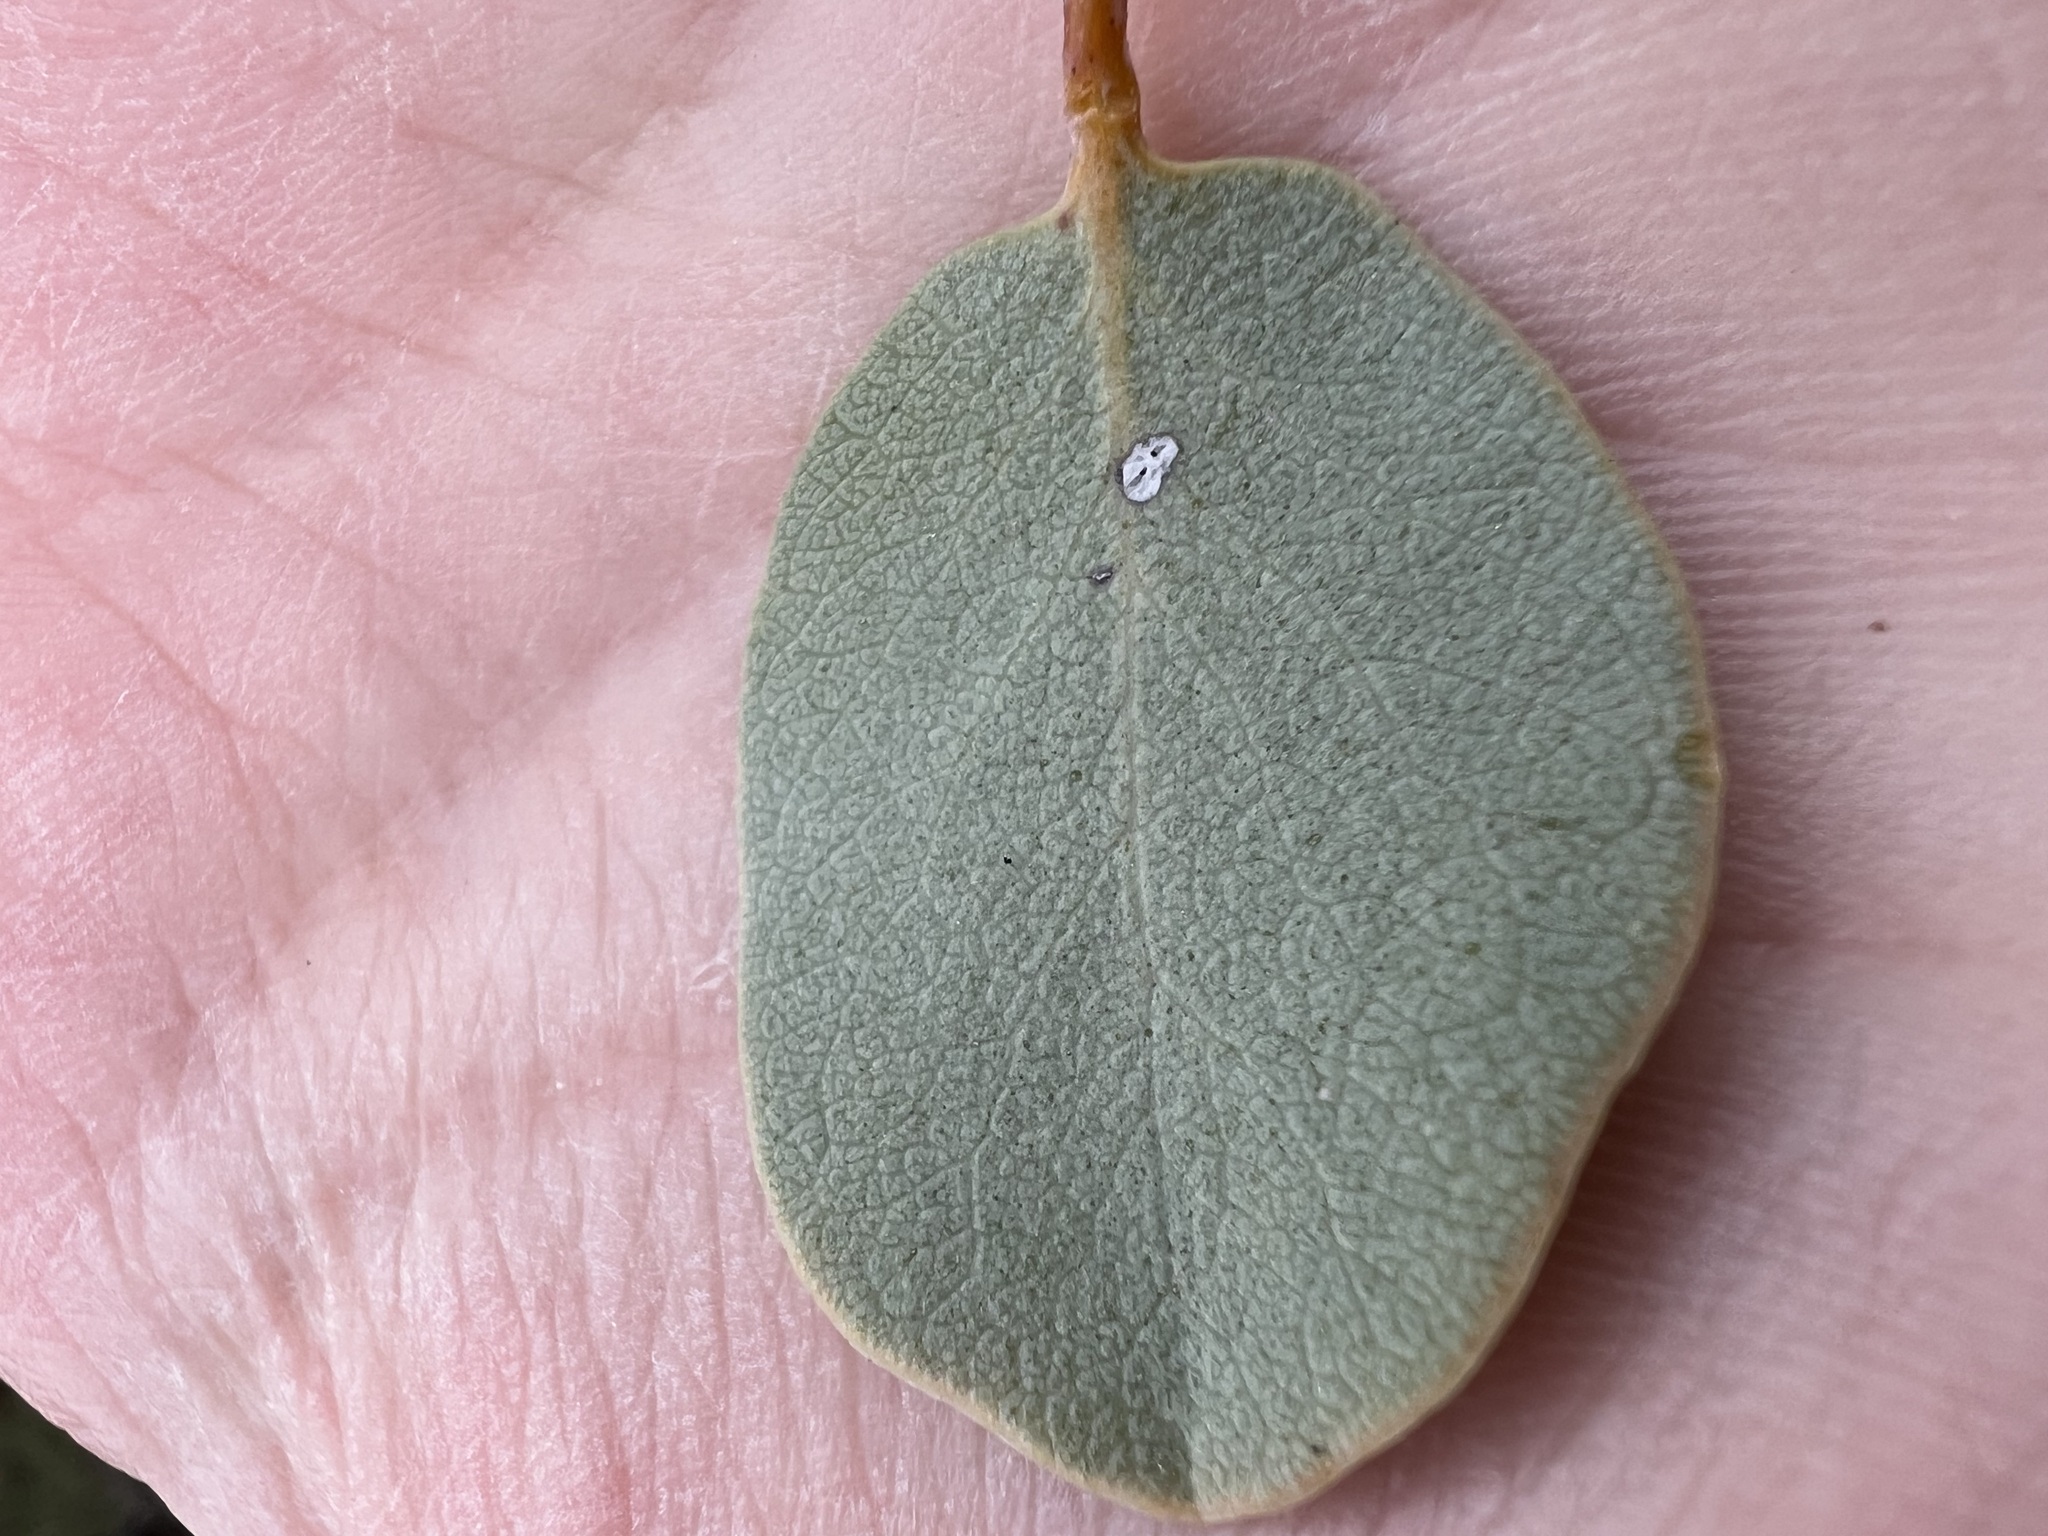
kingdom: Plantae
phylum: Tracheophyta
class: Magnoliopsida
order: Ericales
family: Ericaceae
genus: Arctostaphylos
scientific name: Arctostaphylos glauca
